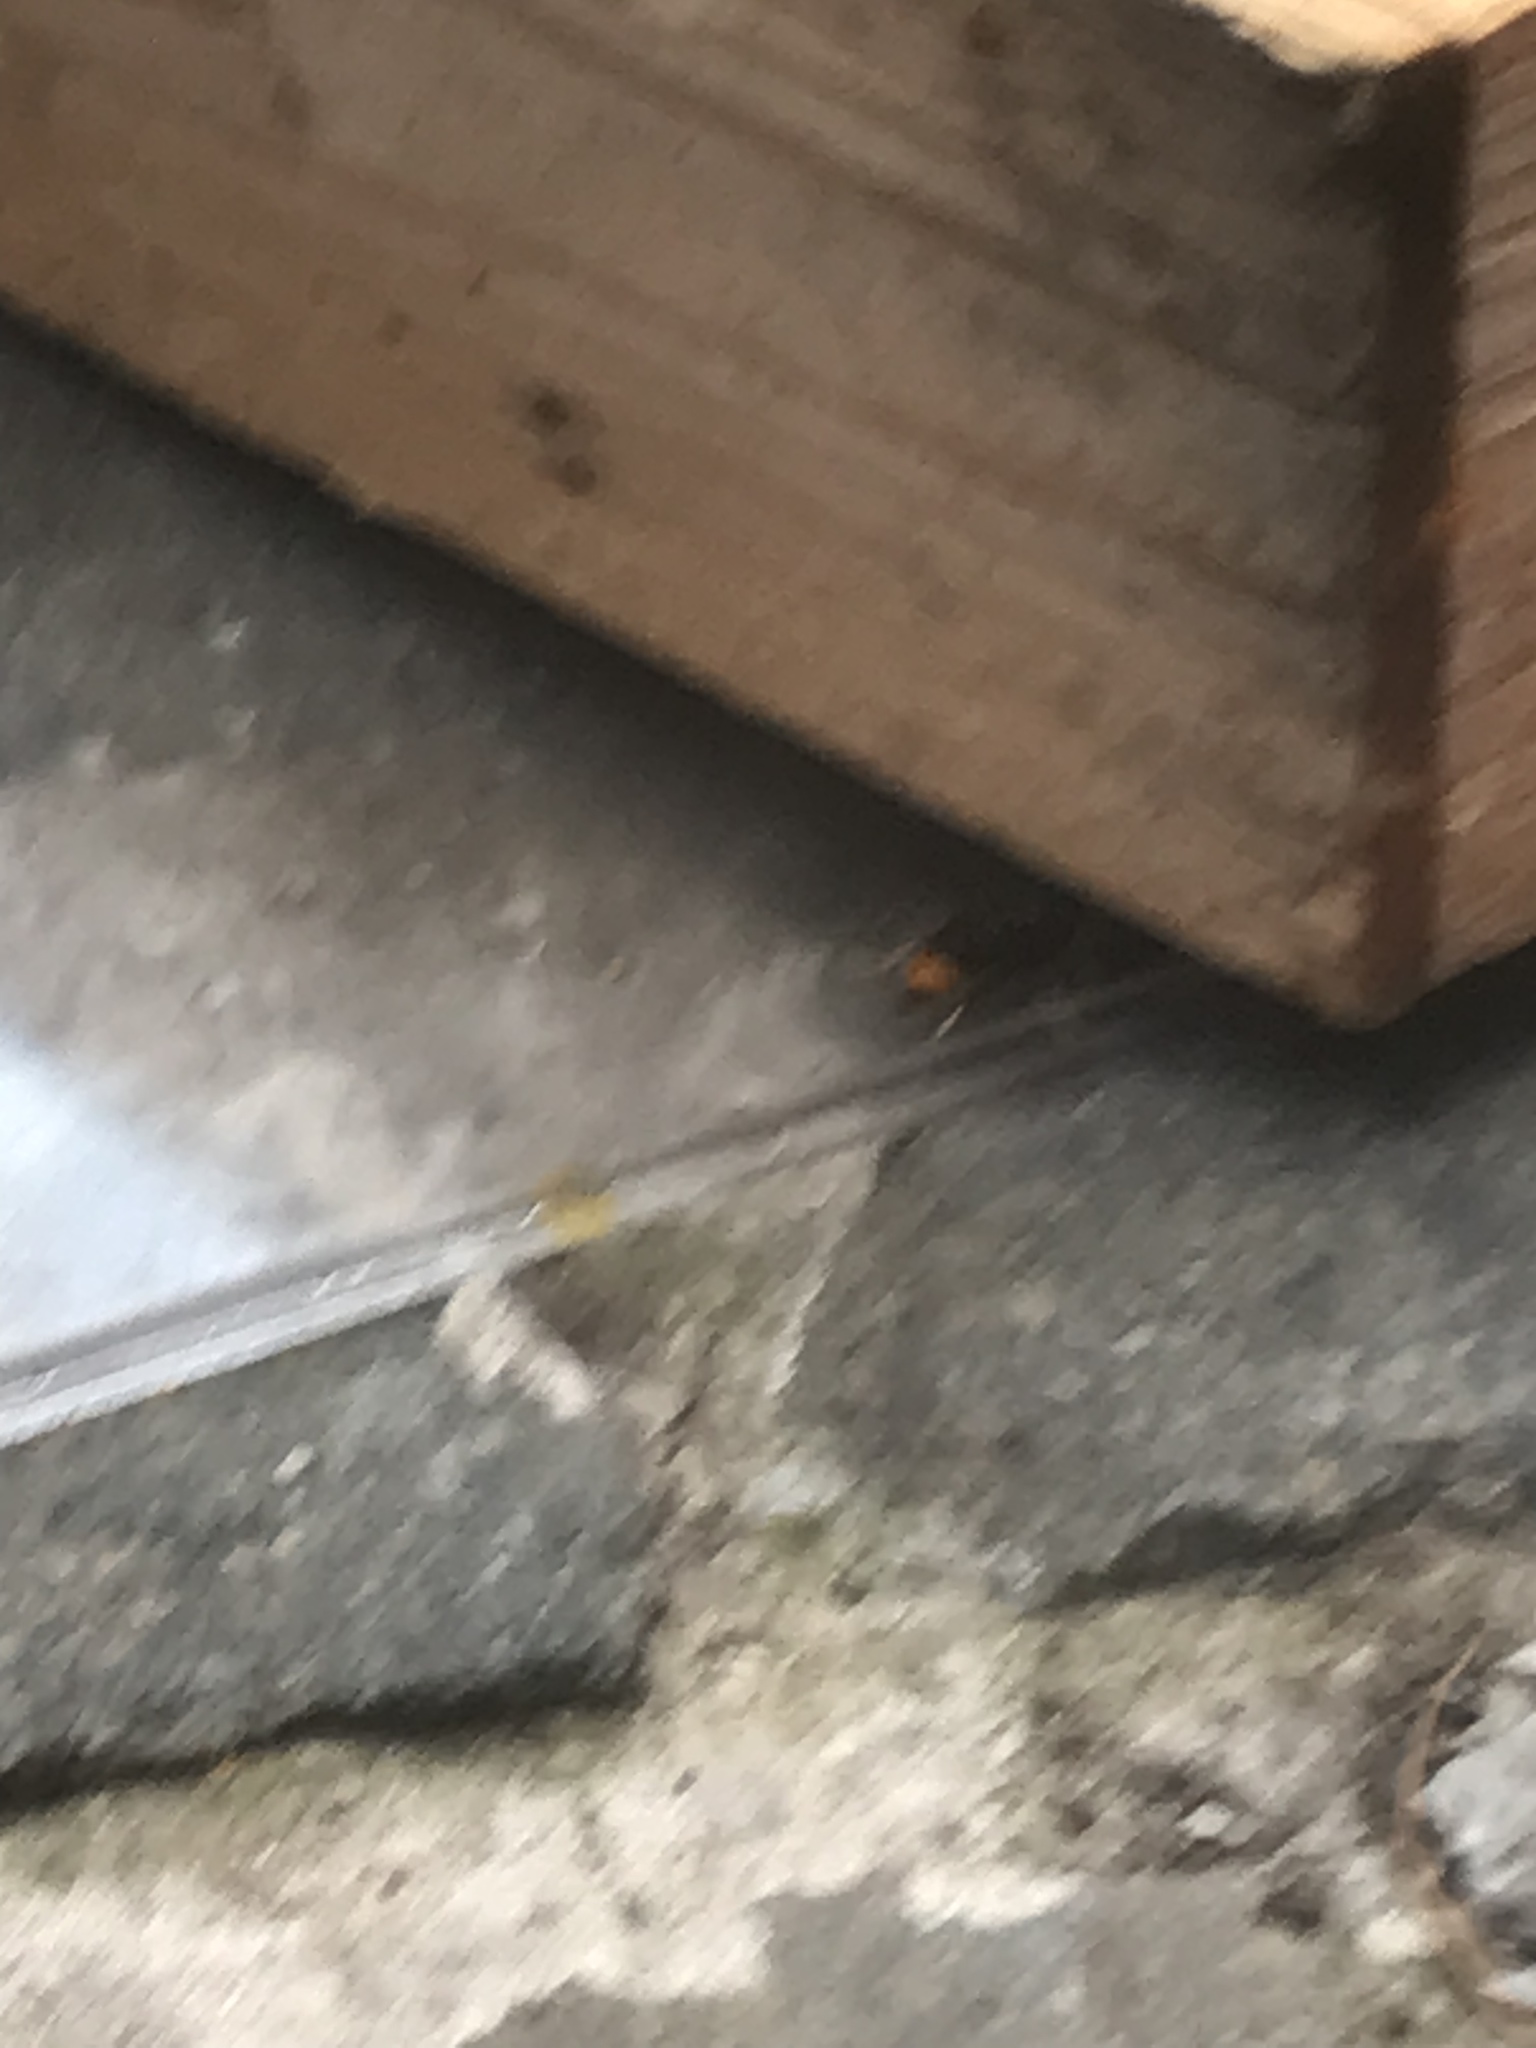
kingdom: Animalia
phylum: Arthropoda
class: Insecta
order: Hymenoptera
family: Vespidae
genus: Vespa
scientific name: Vespa velutina
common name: Asian hornet
